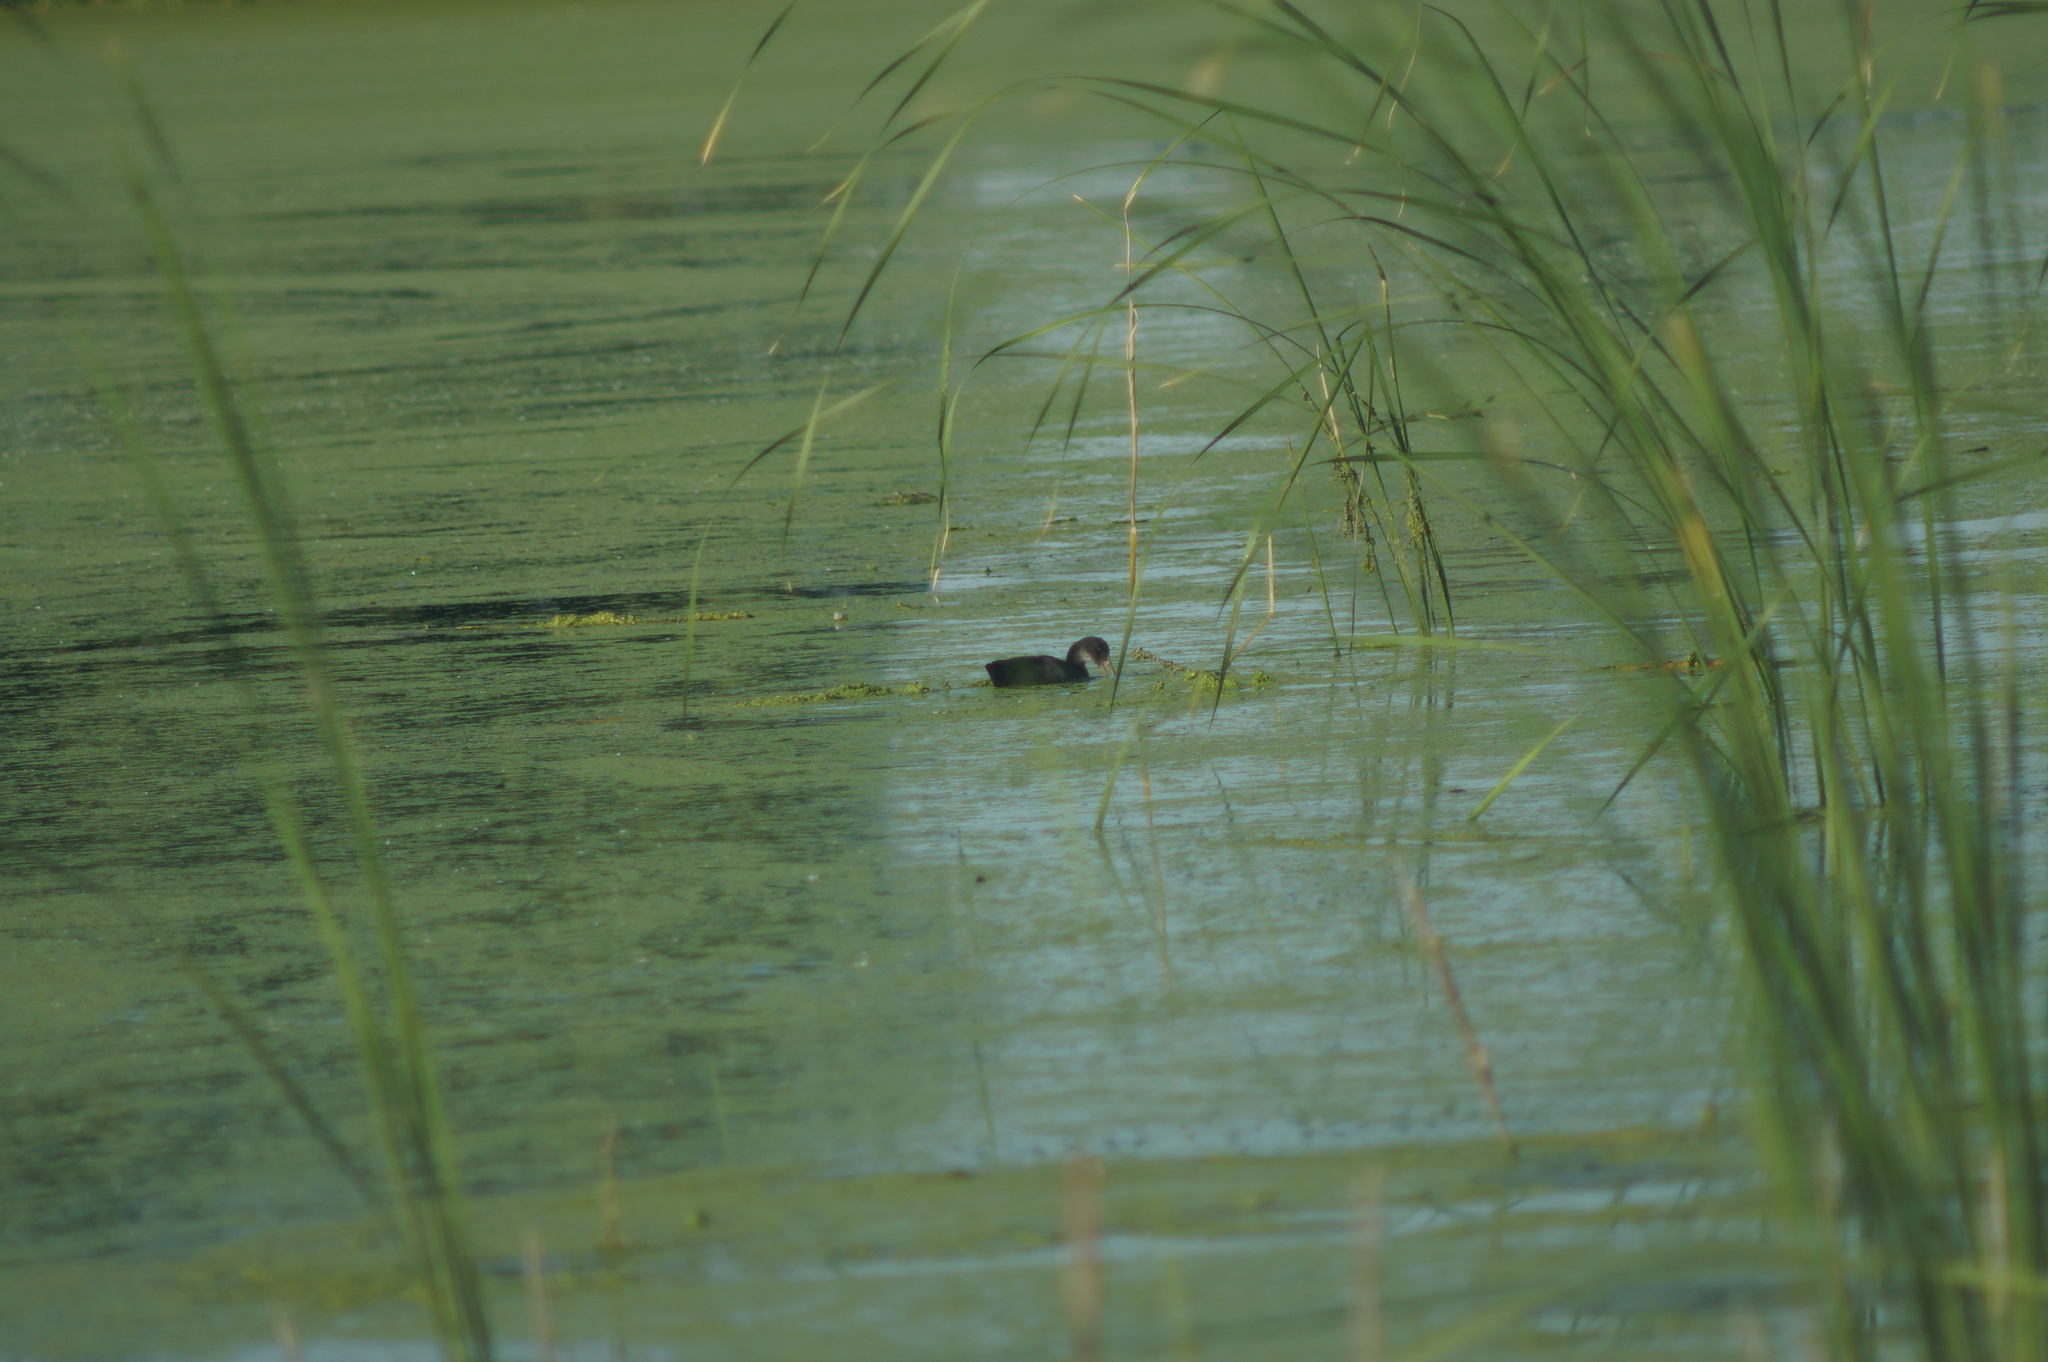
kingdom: Animalia
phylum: Chordata
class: Aves
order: Gruiformes
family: Rallidae
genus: Fulica
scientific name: Fulica atra
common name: Eurasian coot
